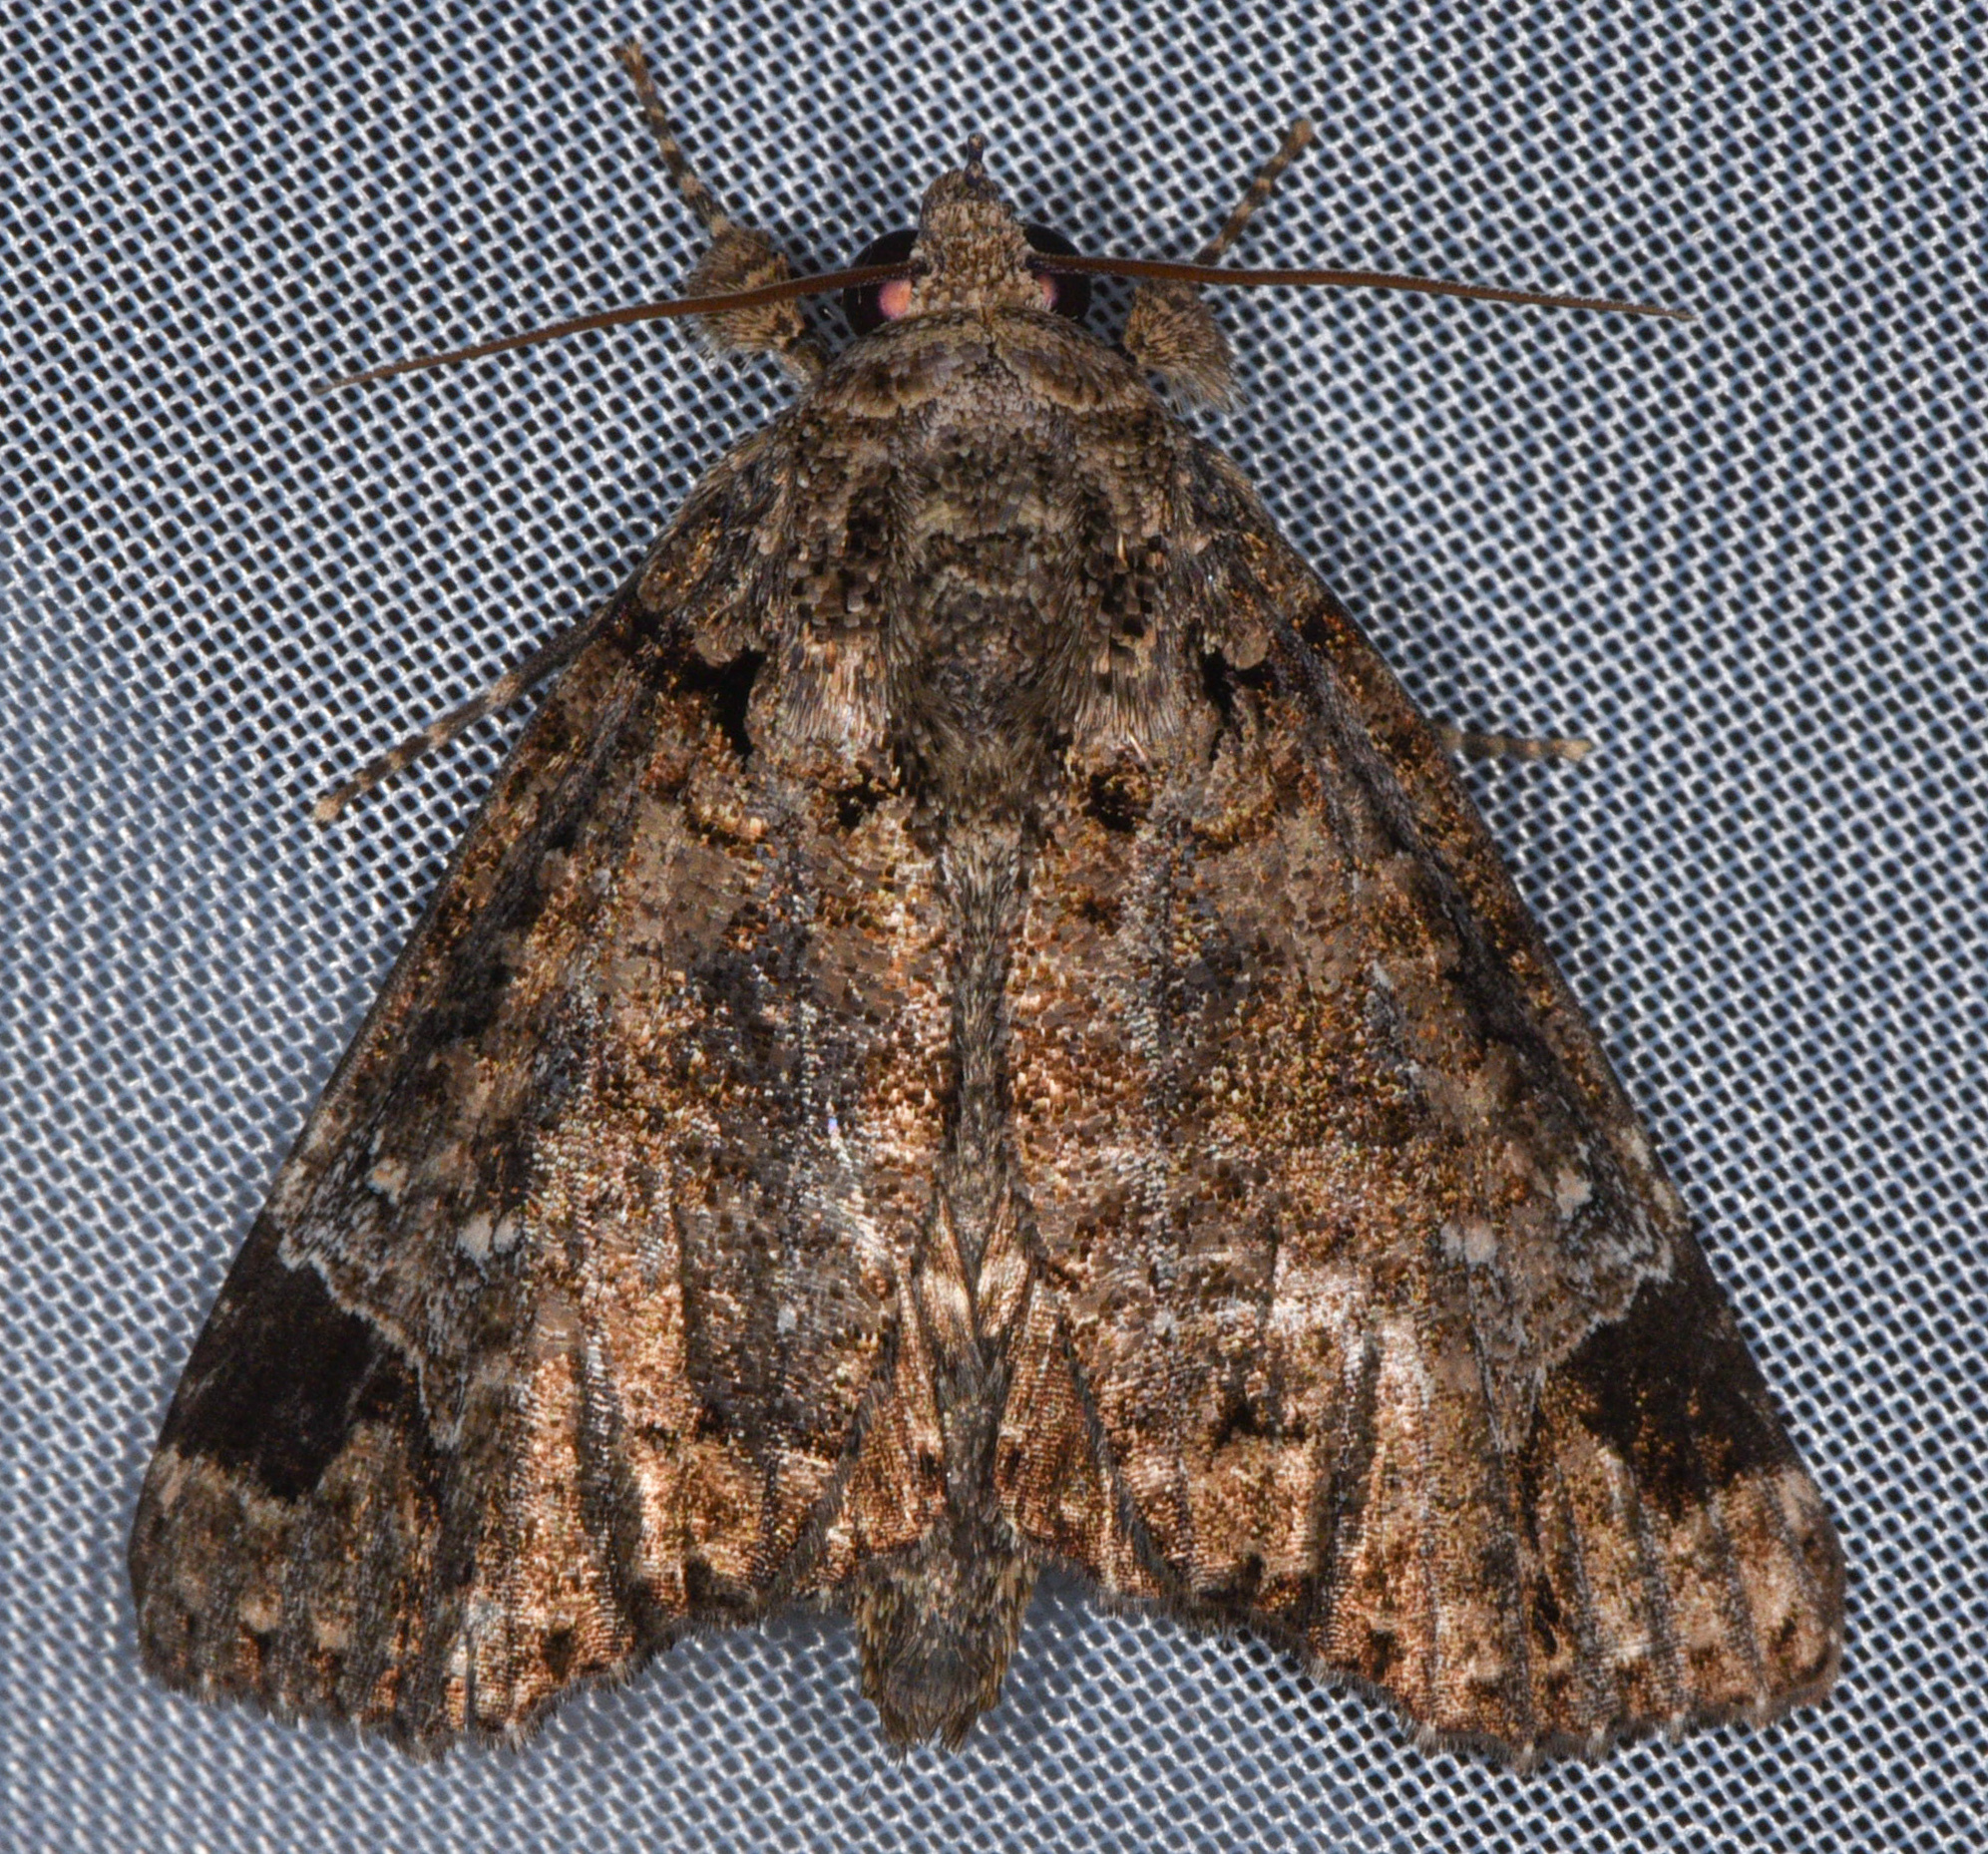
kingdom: Animalia
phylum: Arthropoda
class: Insecta
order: Lepidoptera
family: Erebidae
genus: Encruphion
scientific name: Encruphion leena
